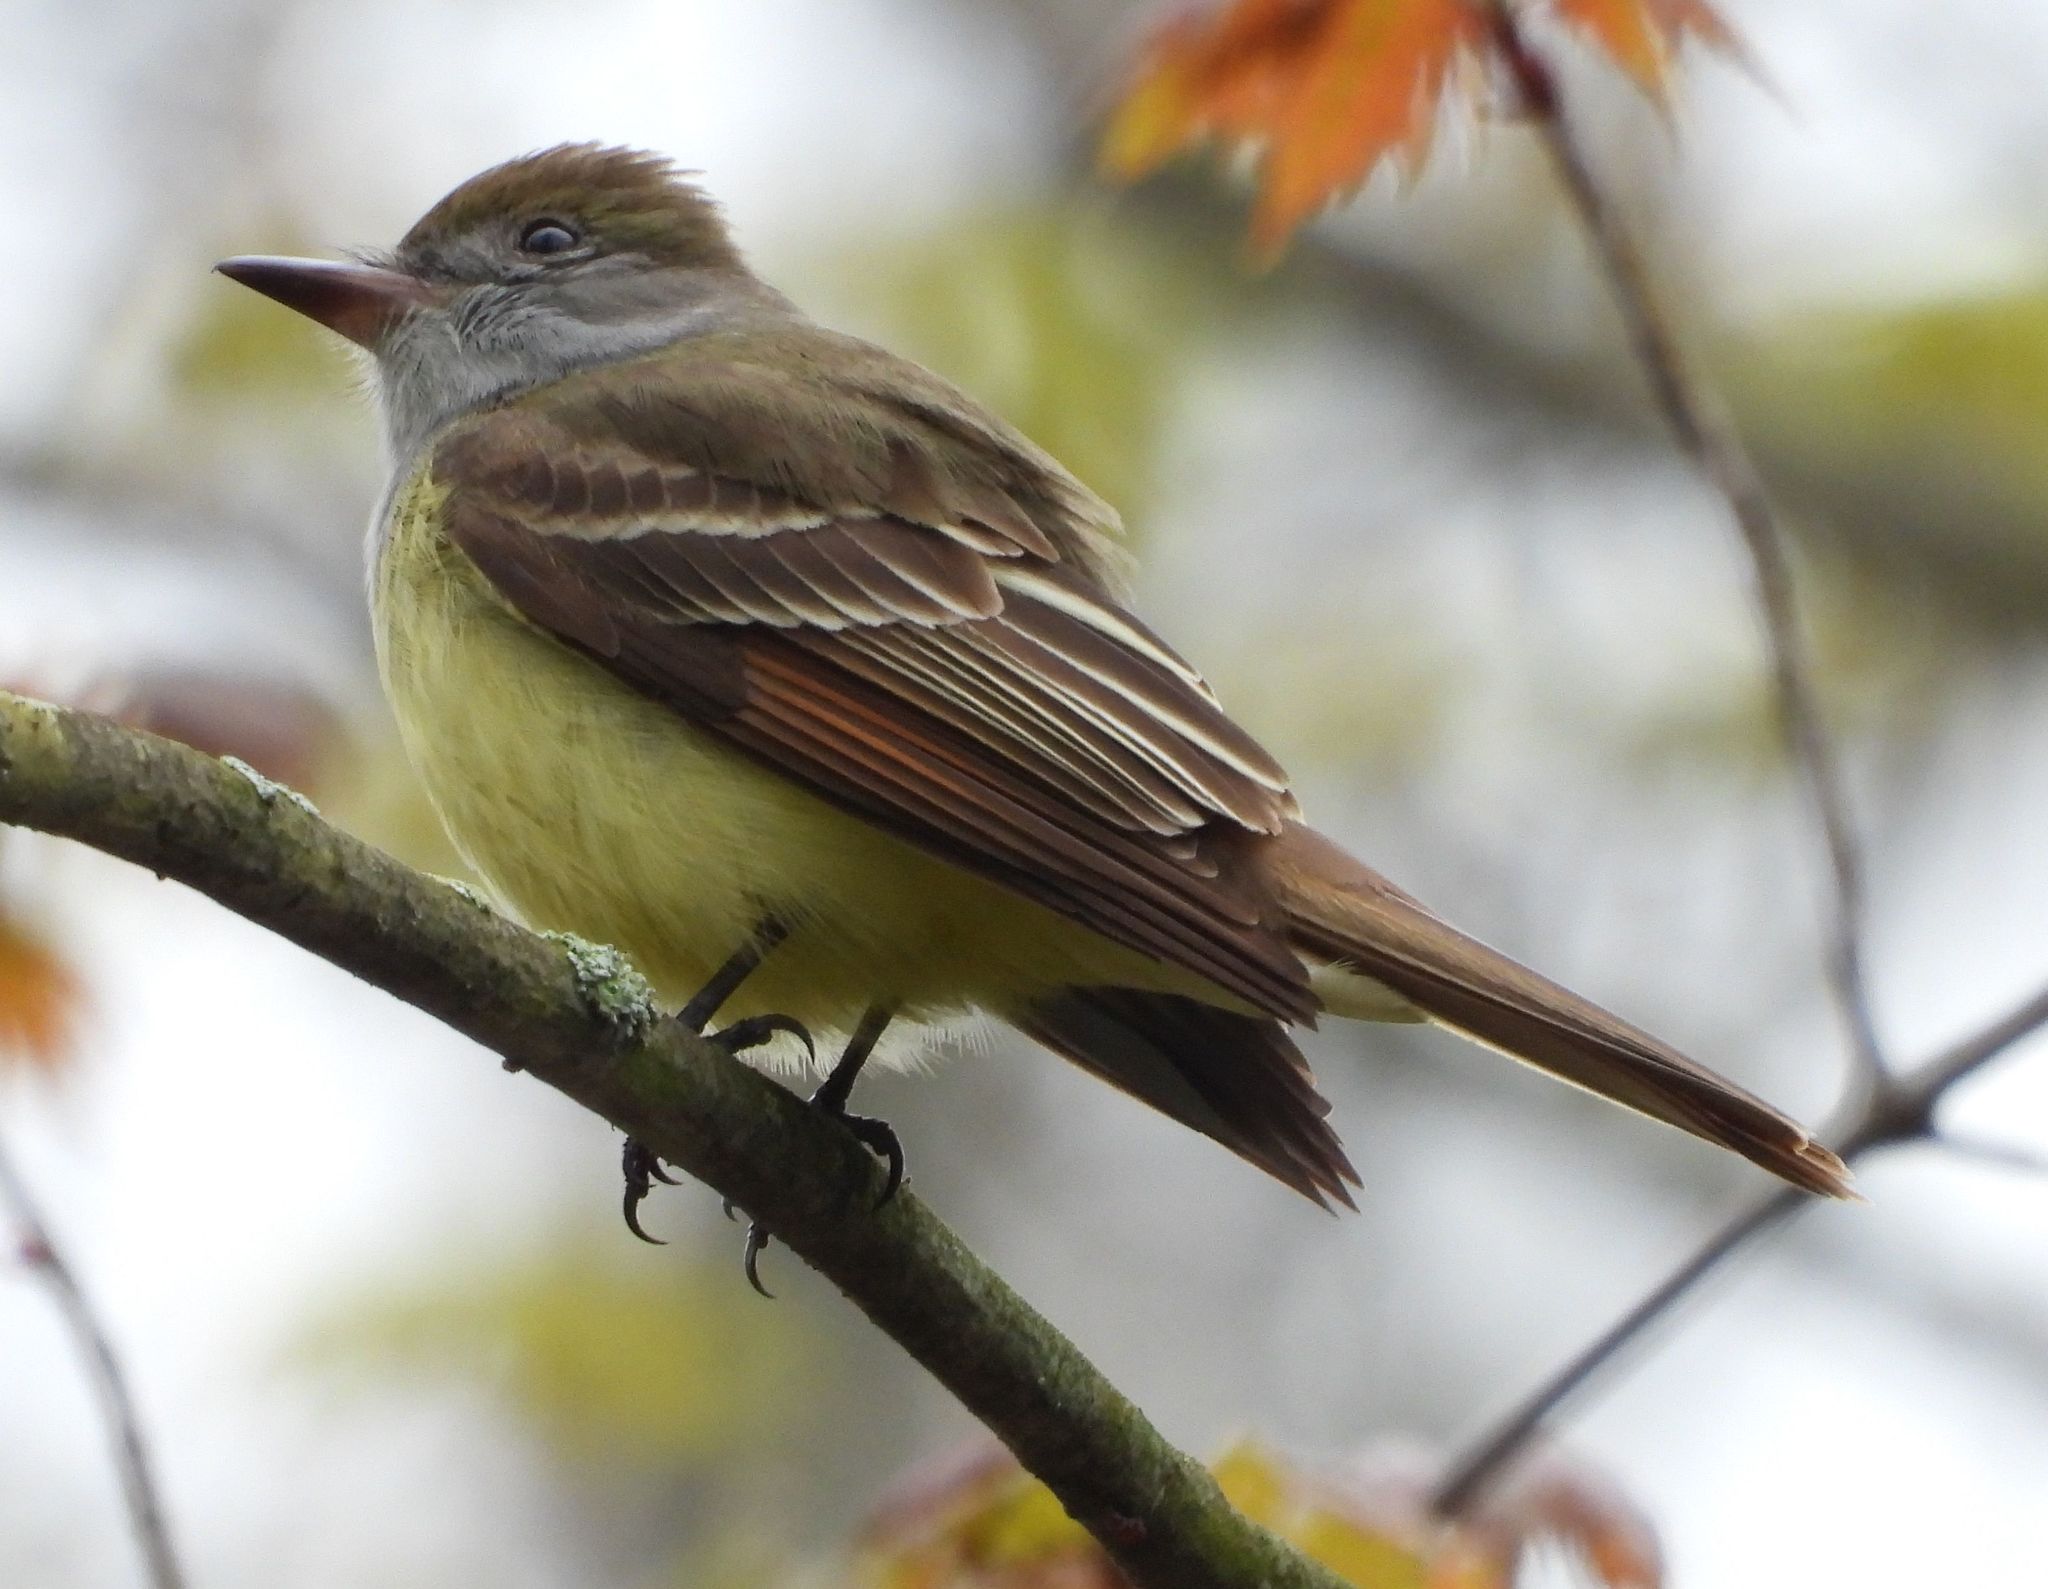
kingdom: Animalia
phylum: Chordata
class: Aves
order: Passeriformes
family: Tyrannidae
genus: Myiarchus
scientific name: Myiarchus crinitus
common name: Great crested flycatcher
